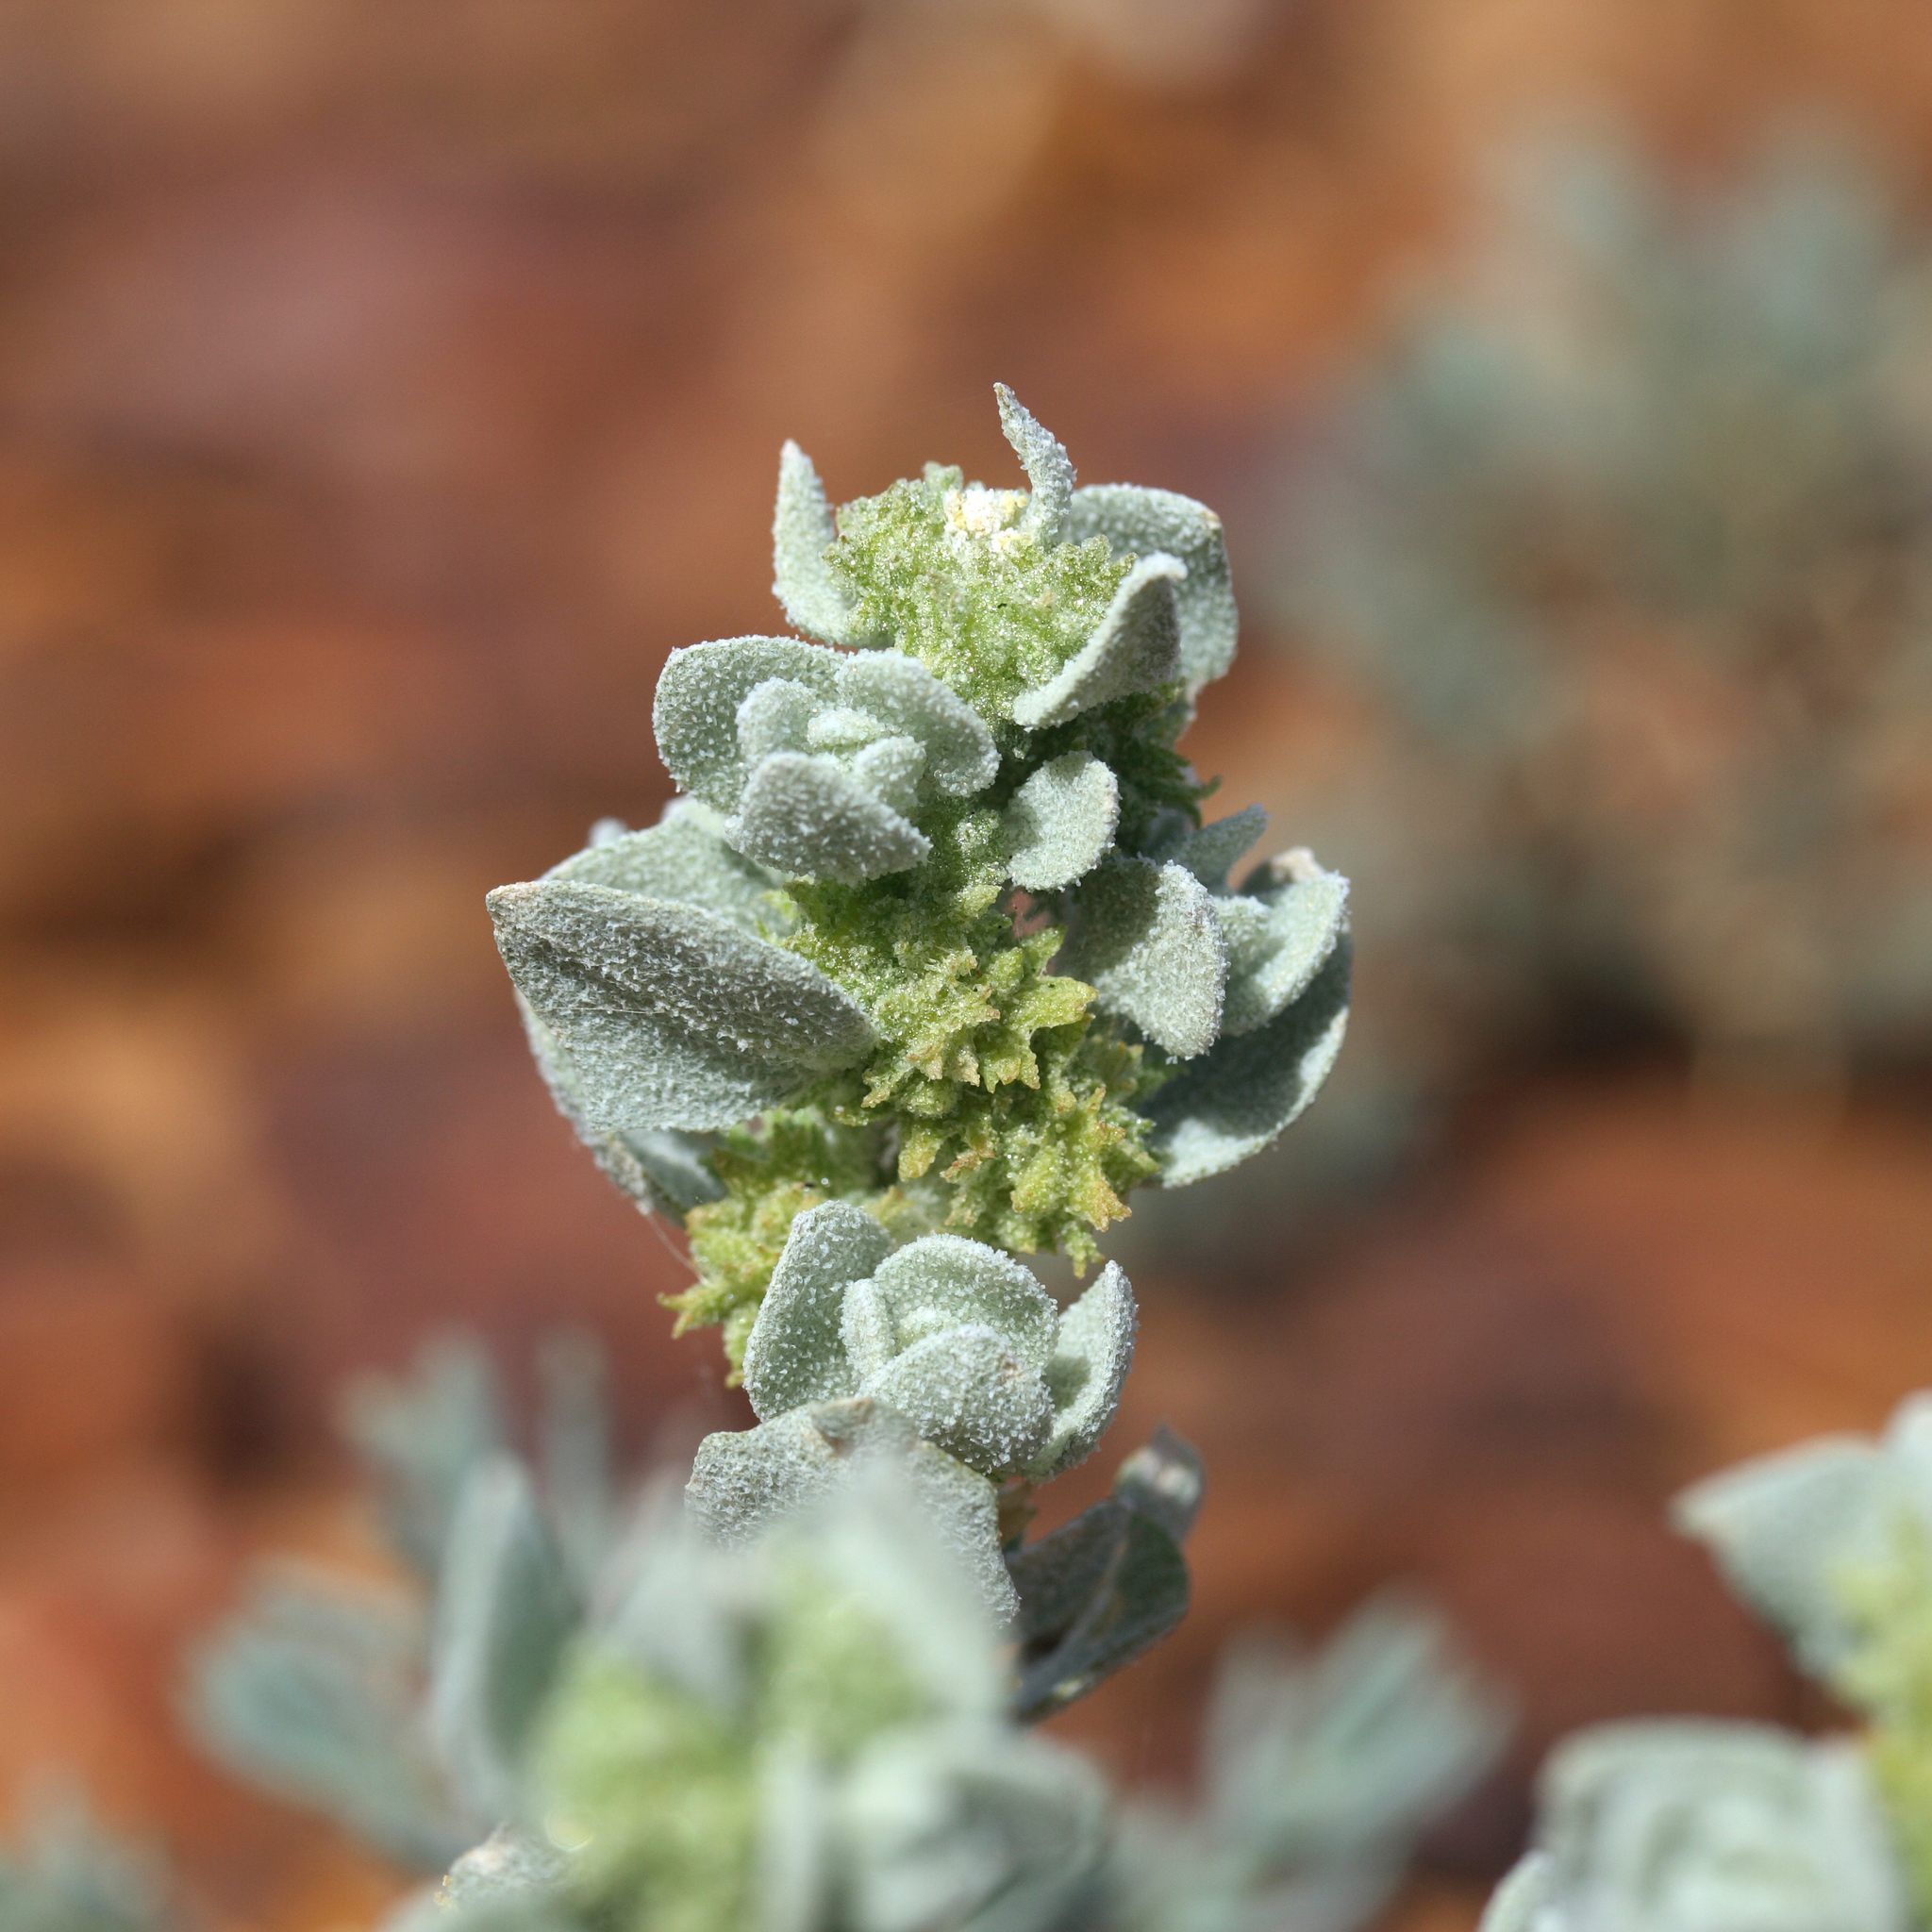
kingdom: Plantae
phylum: Tracheophyta
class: Magnoliopsida
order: Caryophyllales
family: Amaranthaceae
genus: Atriplex
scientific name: Atriplex fissivalvis
